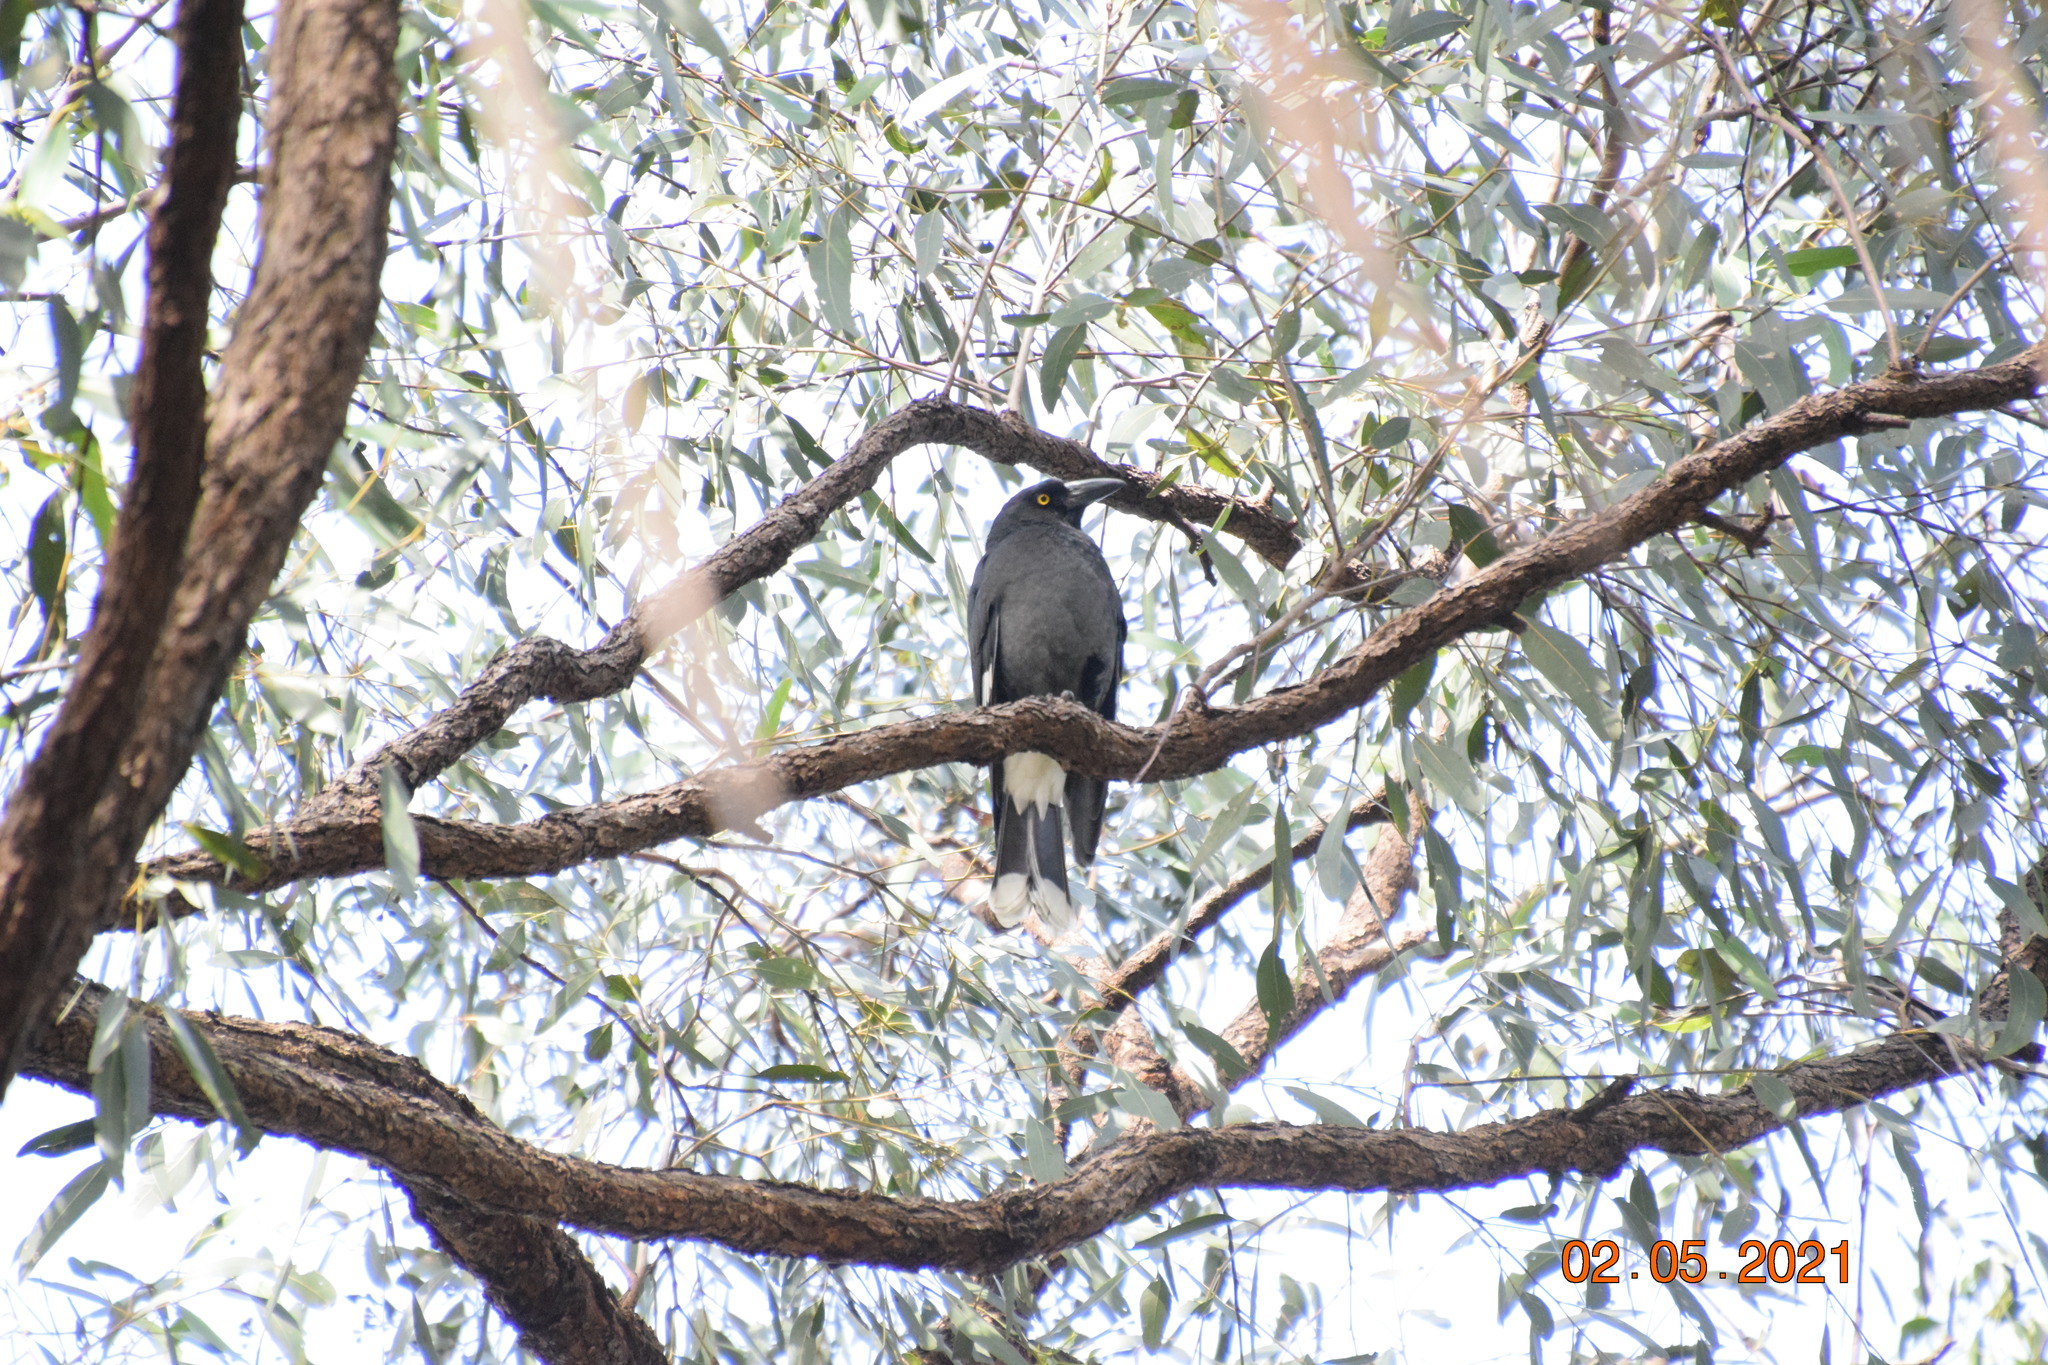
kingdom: Animalia
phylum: Chordata
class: Aves
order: Passeriformes
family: Cracticidae
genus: Strepera
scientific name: Strepera graculina
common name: Pied currawong
